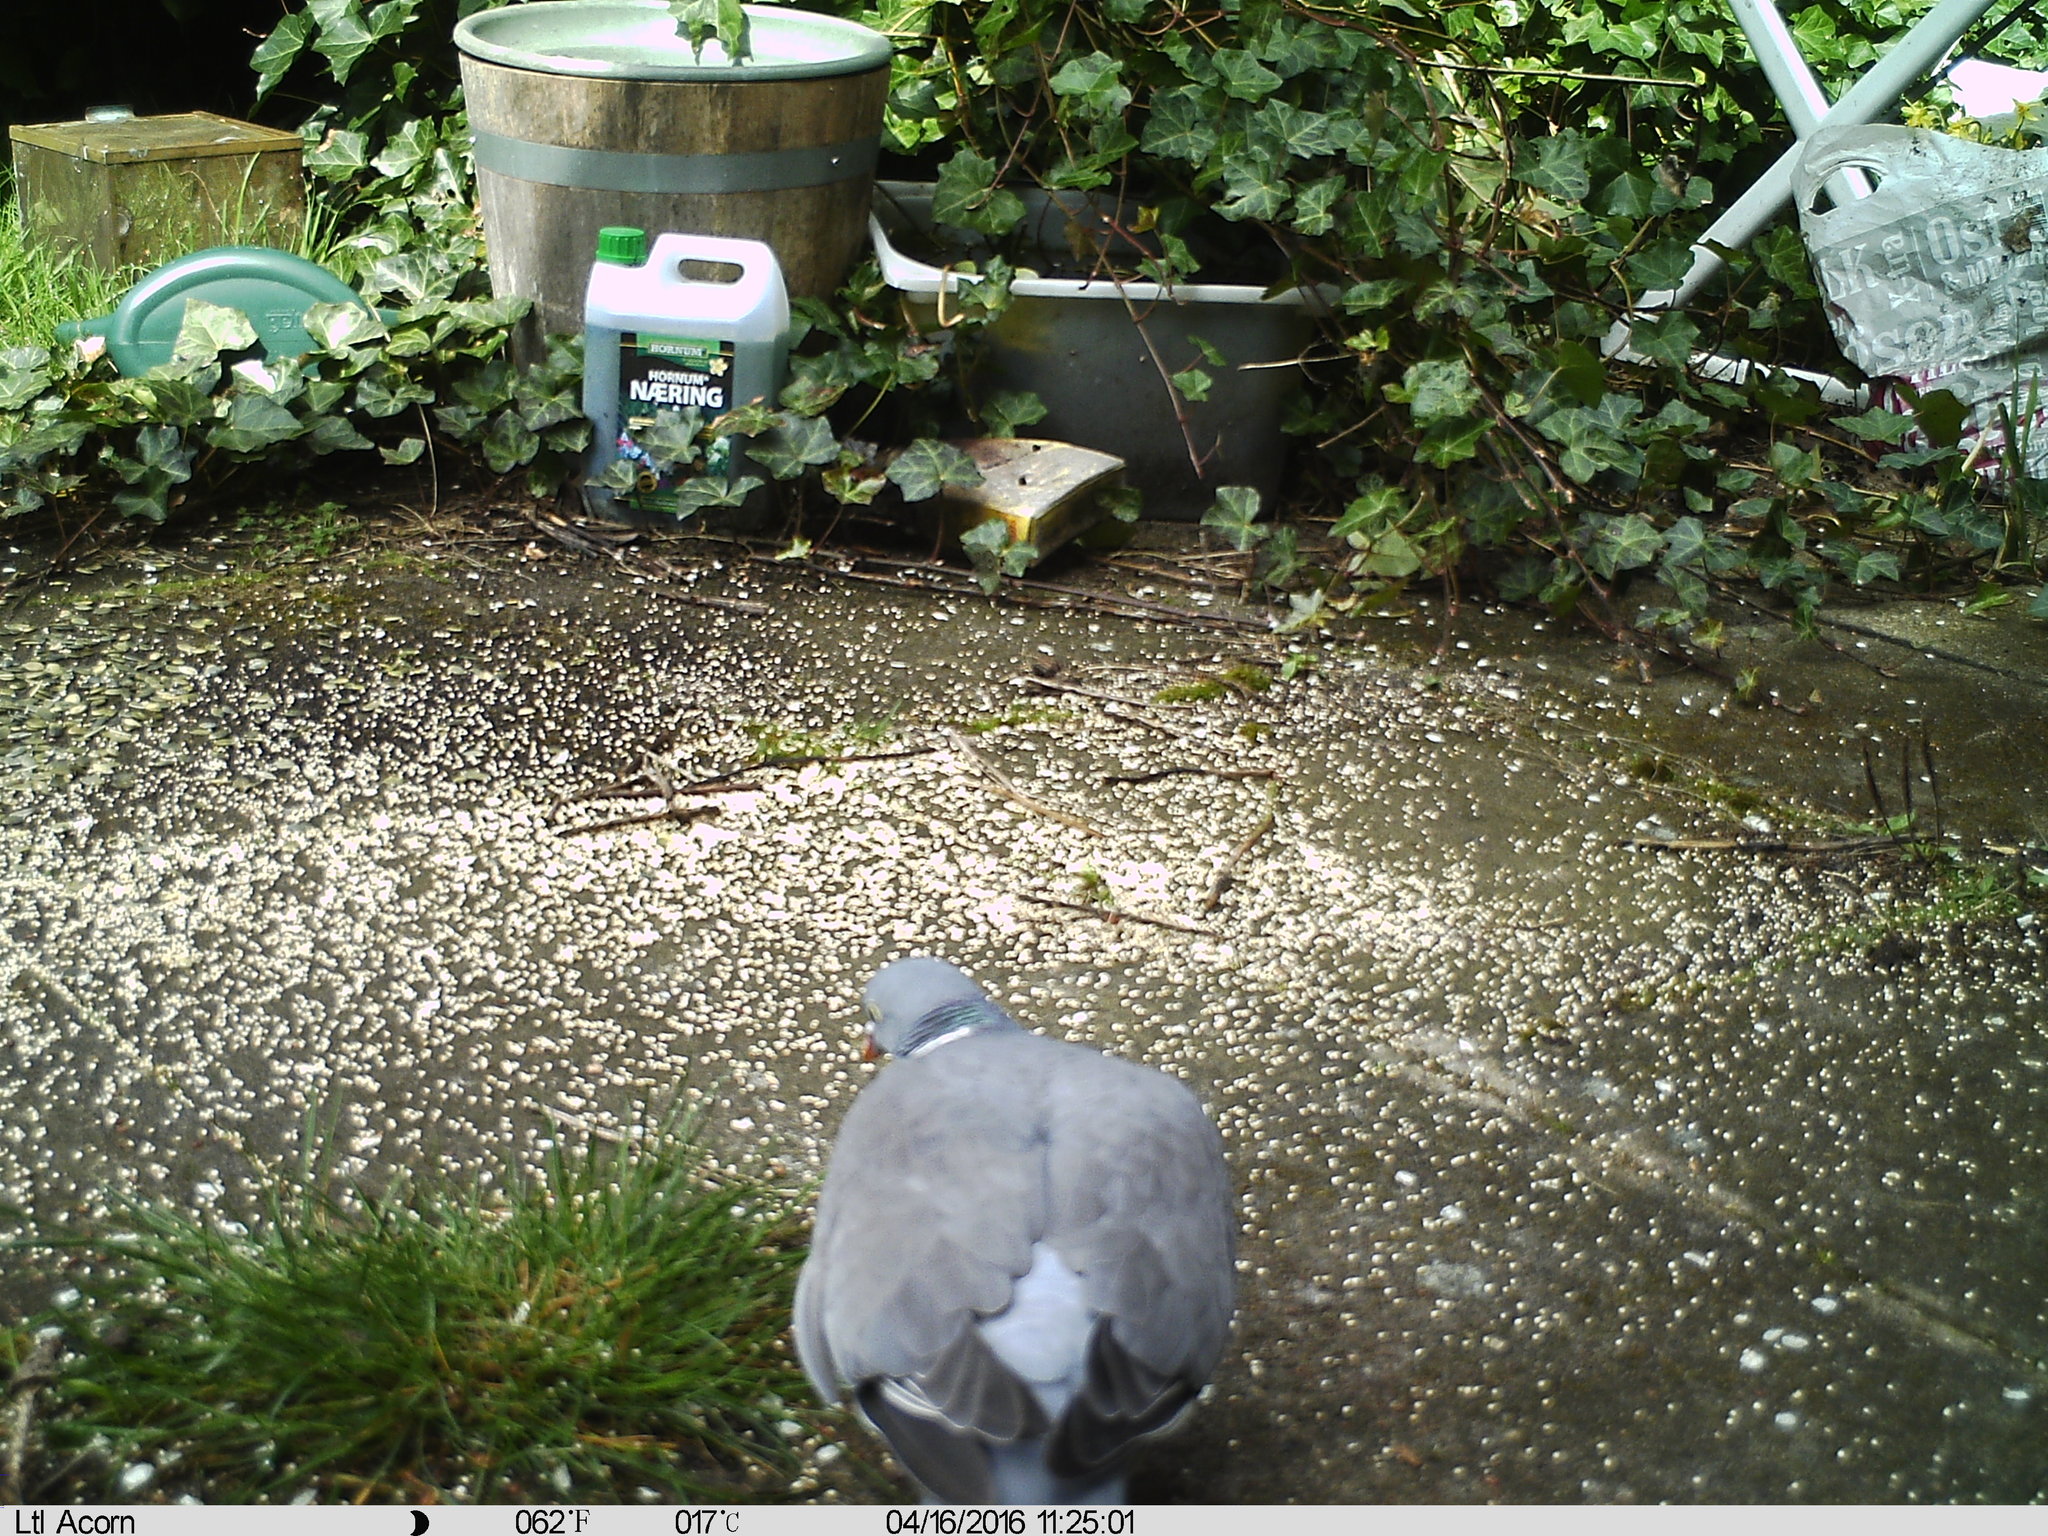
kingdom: Animalia
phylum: Chordata
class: Aves
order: Columbiformes
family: Columbidae
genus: Columba
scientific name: Columba palumbus
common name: Common wood pigeon
